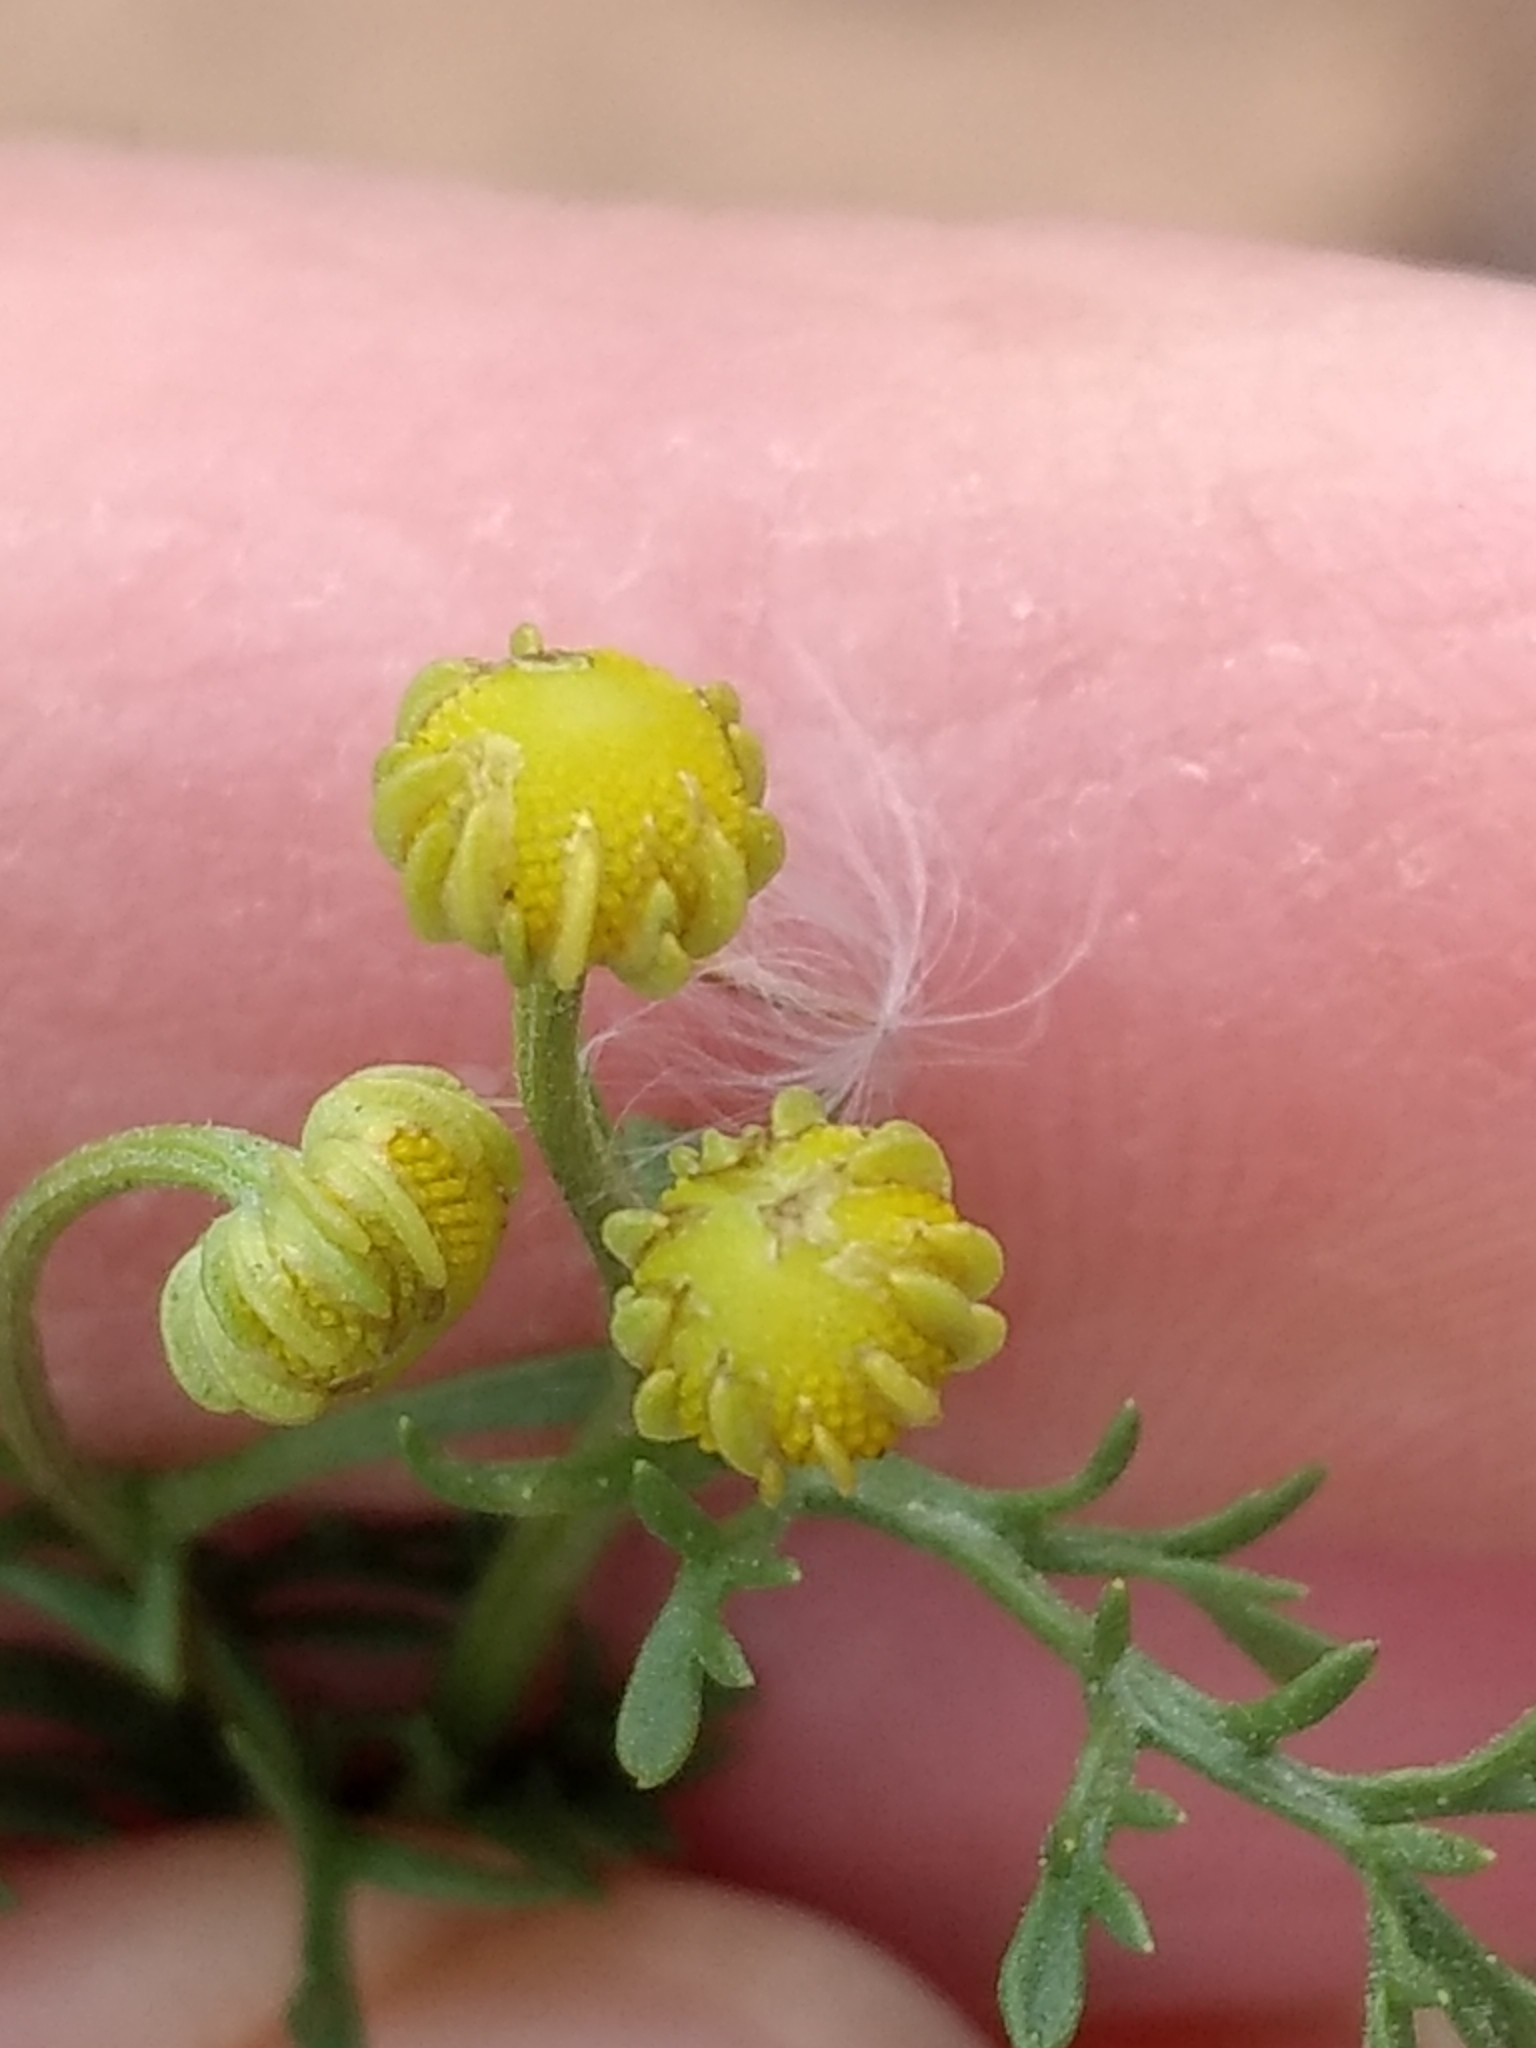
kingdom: Plantae
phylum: Tracheophyta
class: Magnoliopsida
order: Asterales
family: Asteraceae
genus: Oncosiphon
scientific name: Oncosiphon pilulifer
